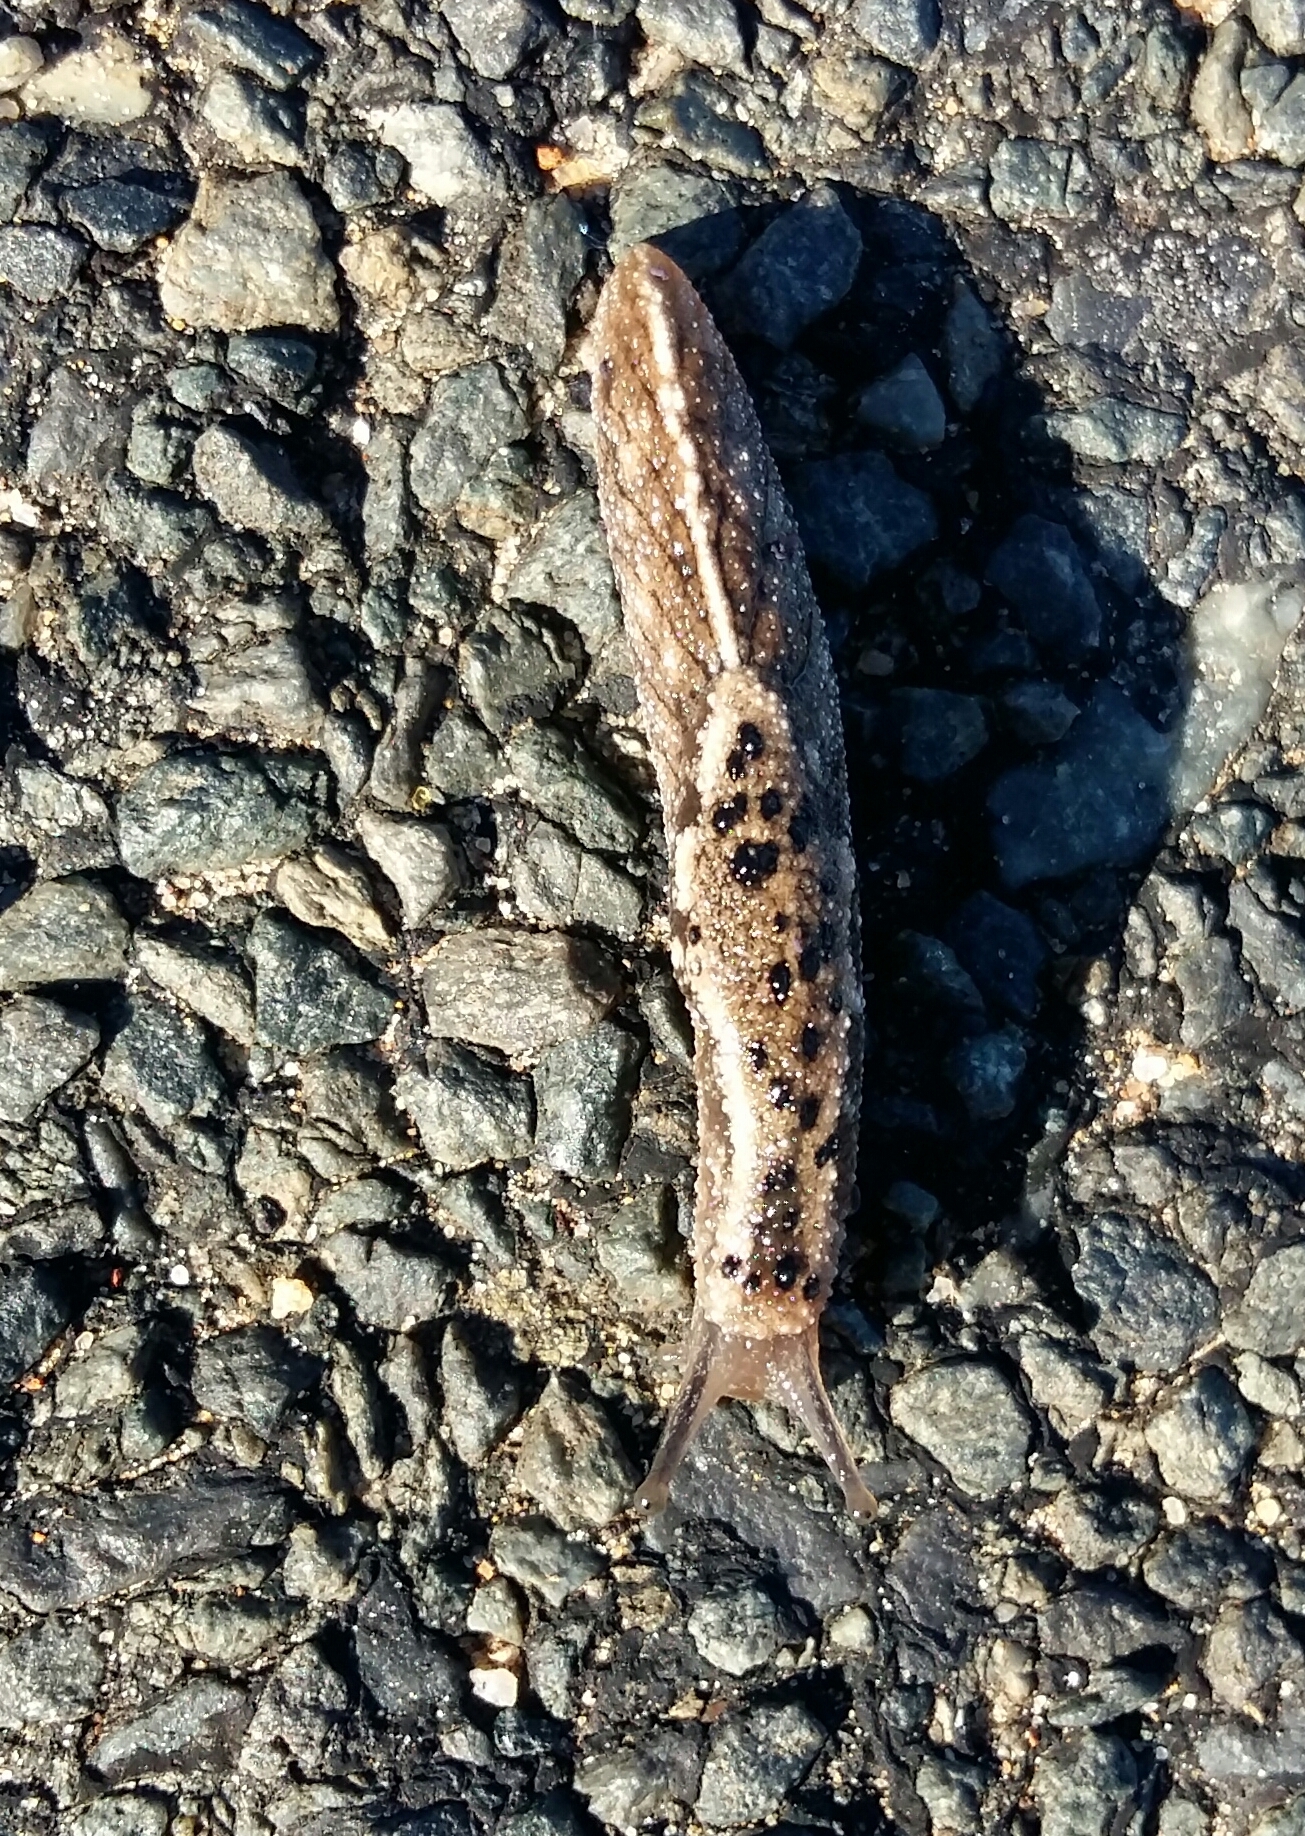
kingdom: Animalia
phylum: Mollusca
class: Gastropoda
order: Stylommatophora
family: Oopeltidae
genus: Oopelta
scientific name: Oopelta nigropunctata
